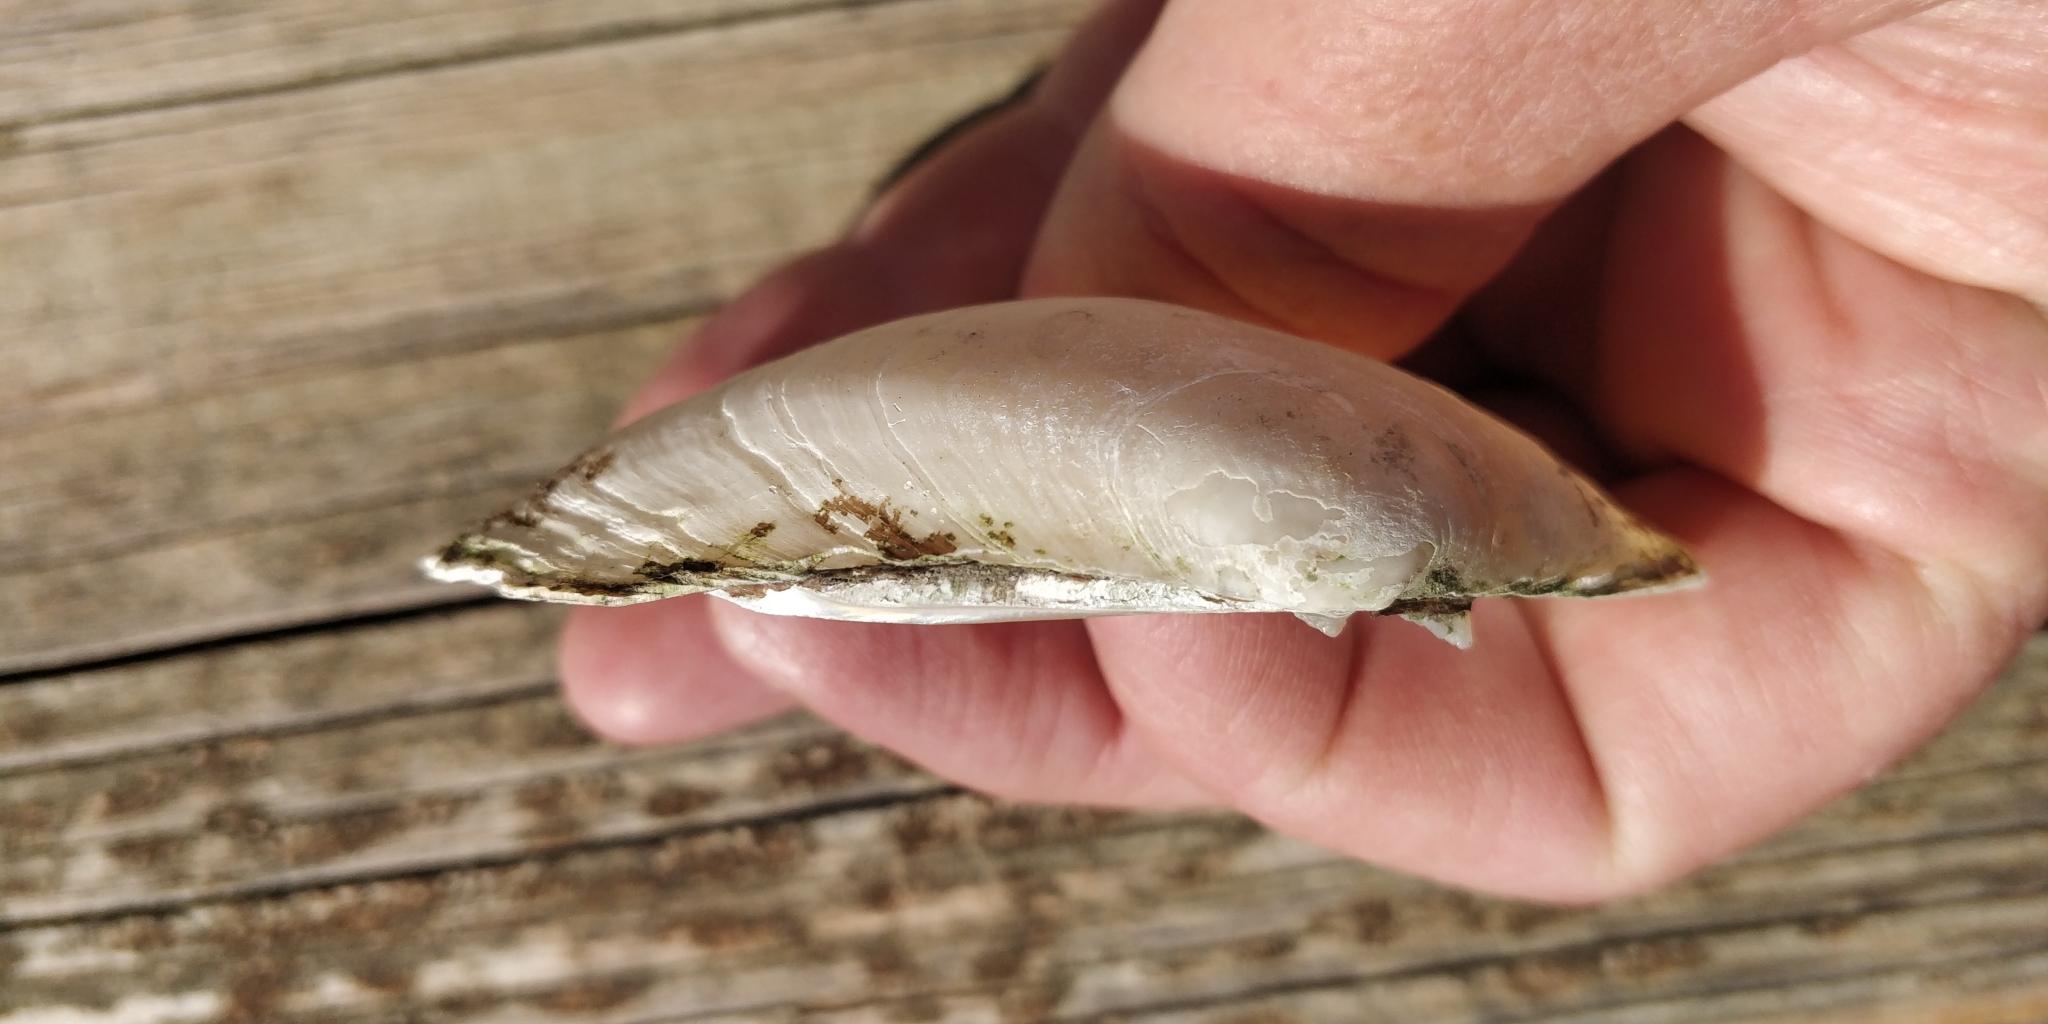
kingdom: Animalia
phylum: Mollusca
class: Bivalvia
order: Unionida
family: Unionidae
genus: Lampsilis
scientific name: Lampsilis cardium
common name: Plain pocketbook
